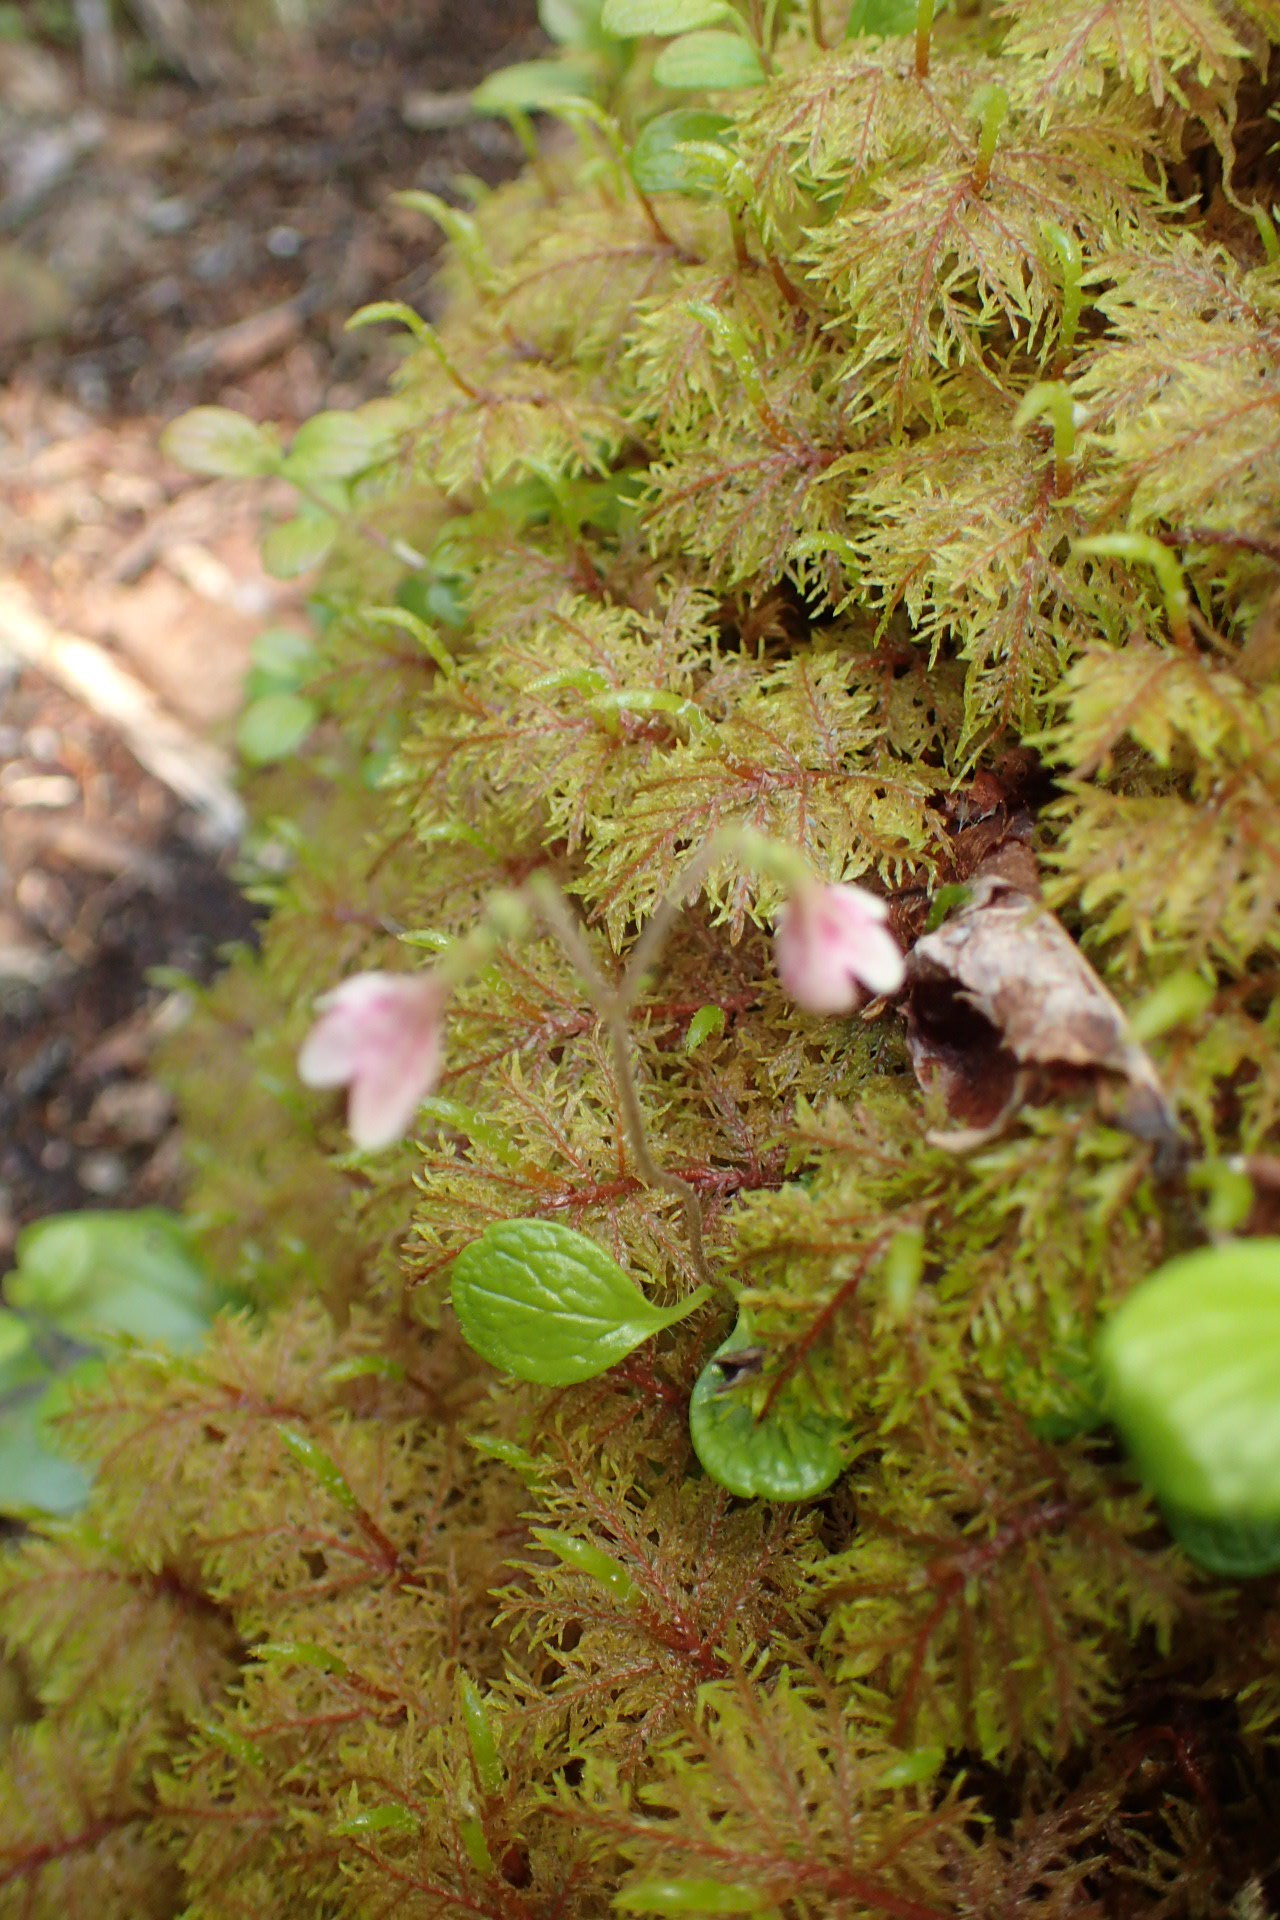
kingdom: Plantae
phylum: Tracheophyta
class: Magnoliopsida
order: Dipsacales
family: Caprifoliaceae
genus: Linnaea
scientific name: Linnaea borealis
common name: Twinflower
